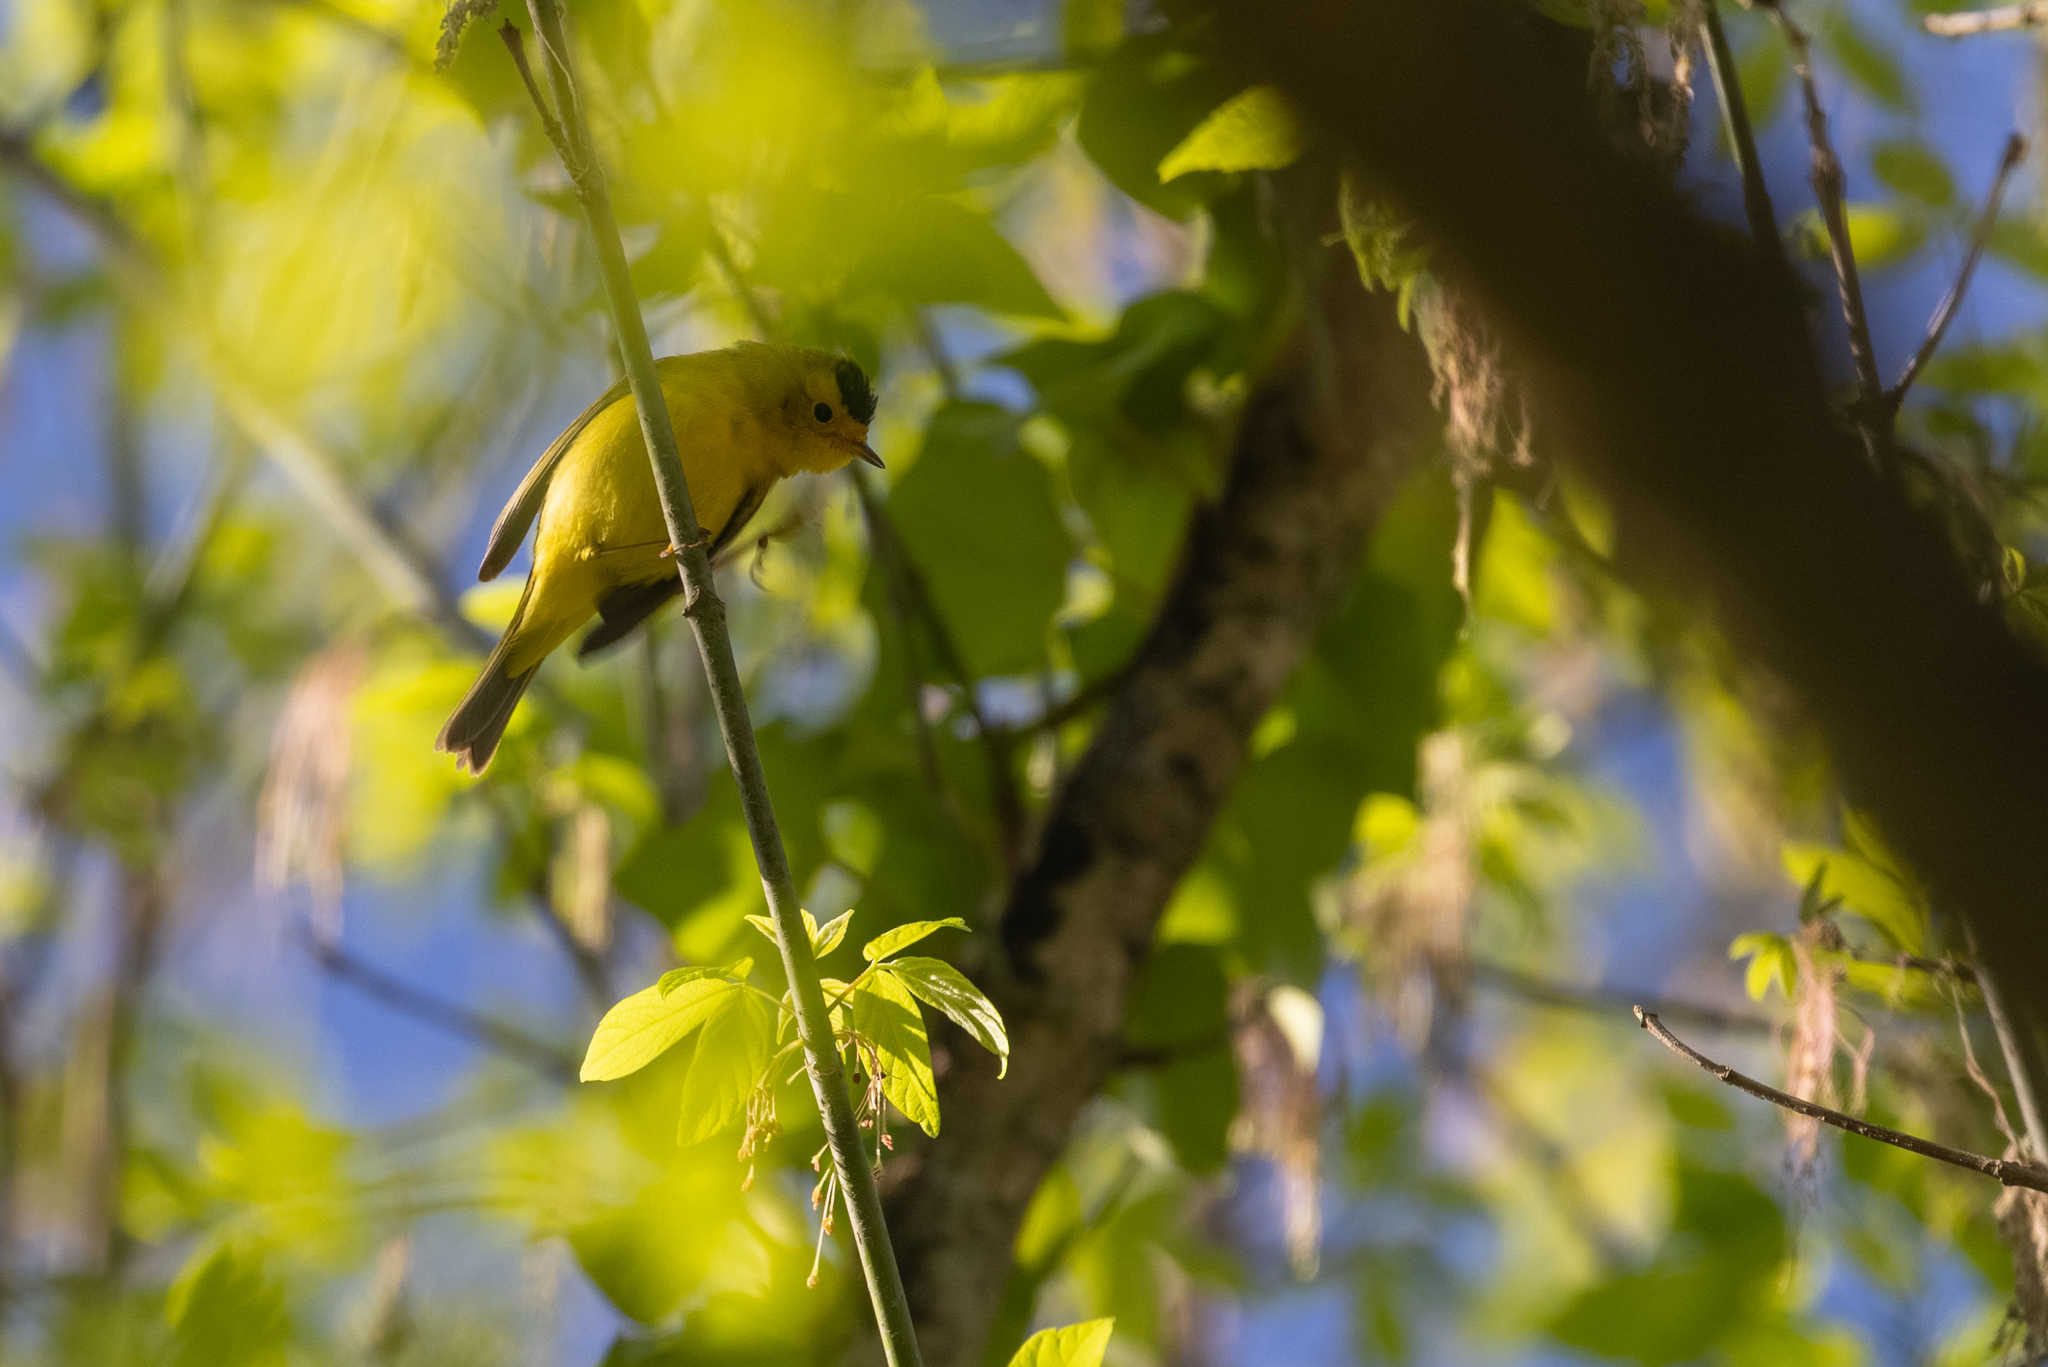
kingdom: Animalia
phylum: Chordata
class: Aves
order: Passeriformes
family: Parulidae
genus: Cardellina
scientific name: Cardellina pusilla
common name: Wilson's warbler
